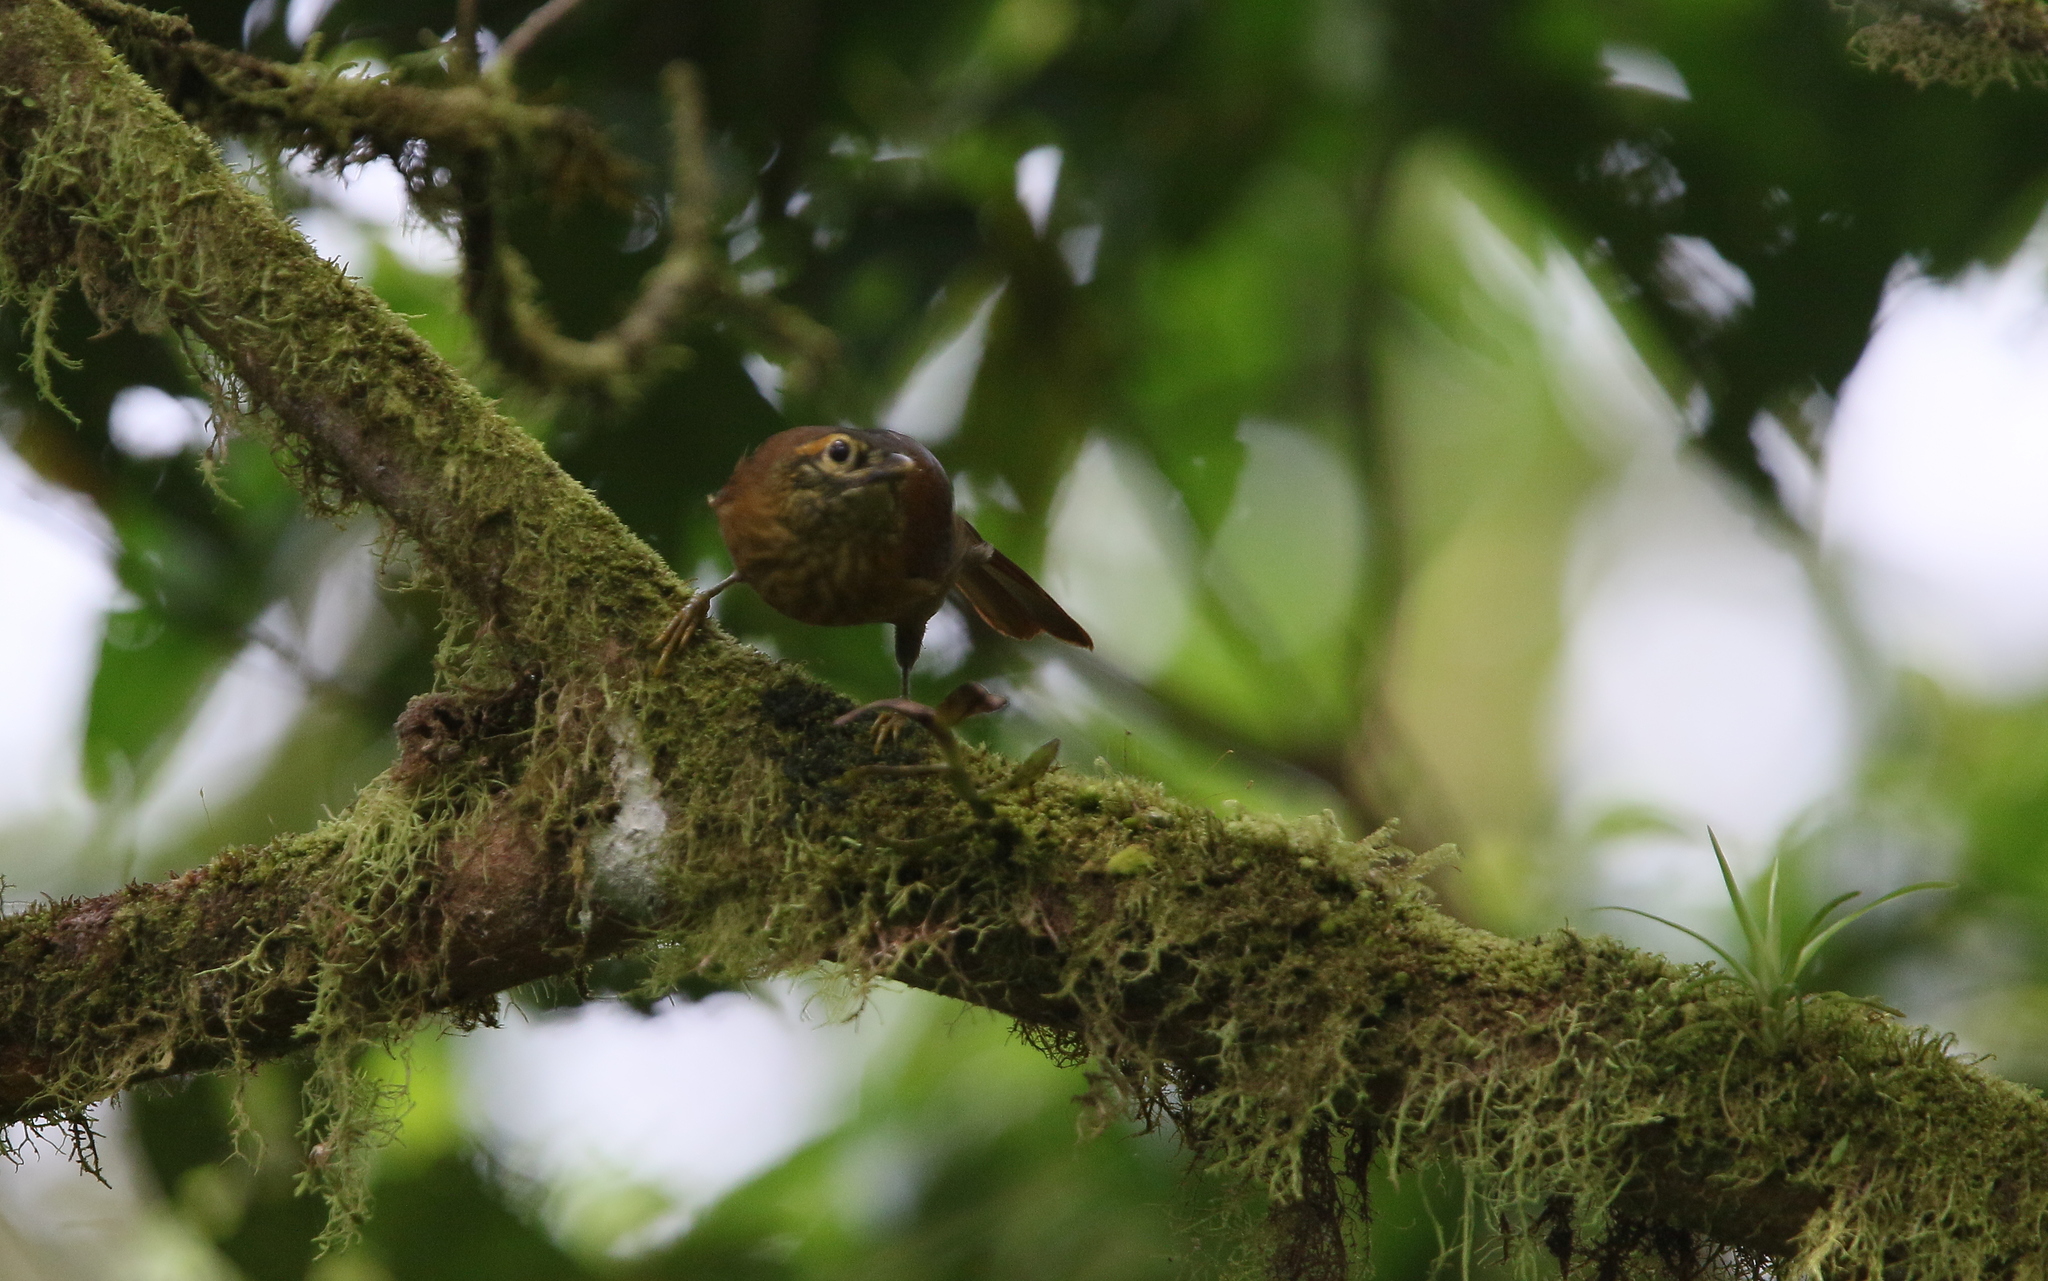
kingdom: Animalia
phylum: Chordata
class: Aves
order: Passeriformes
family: Furnariidae
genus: Anabacerthia
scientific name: Anabacerthia variegaticeps
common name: Scaly-throated foliage-gleaner
